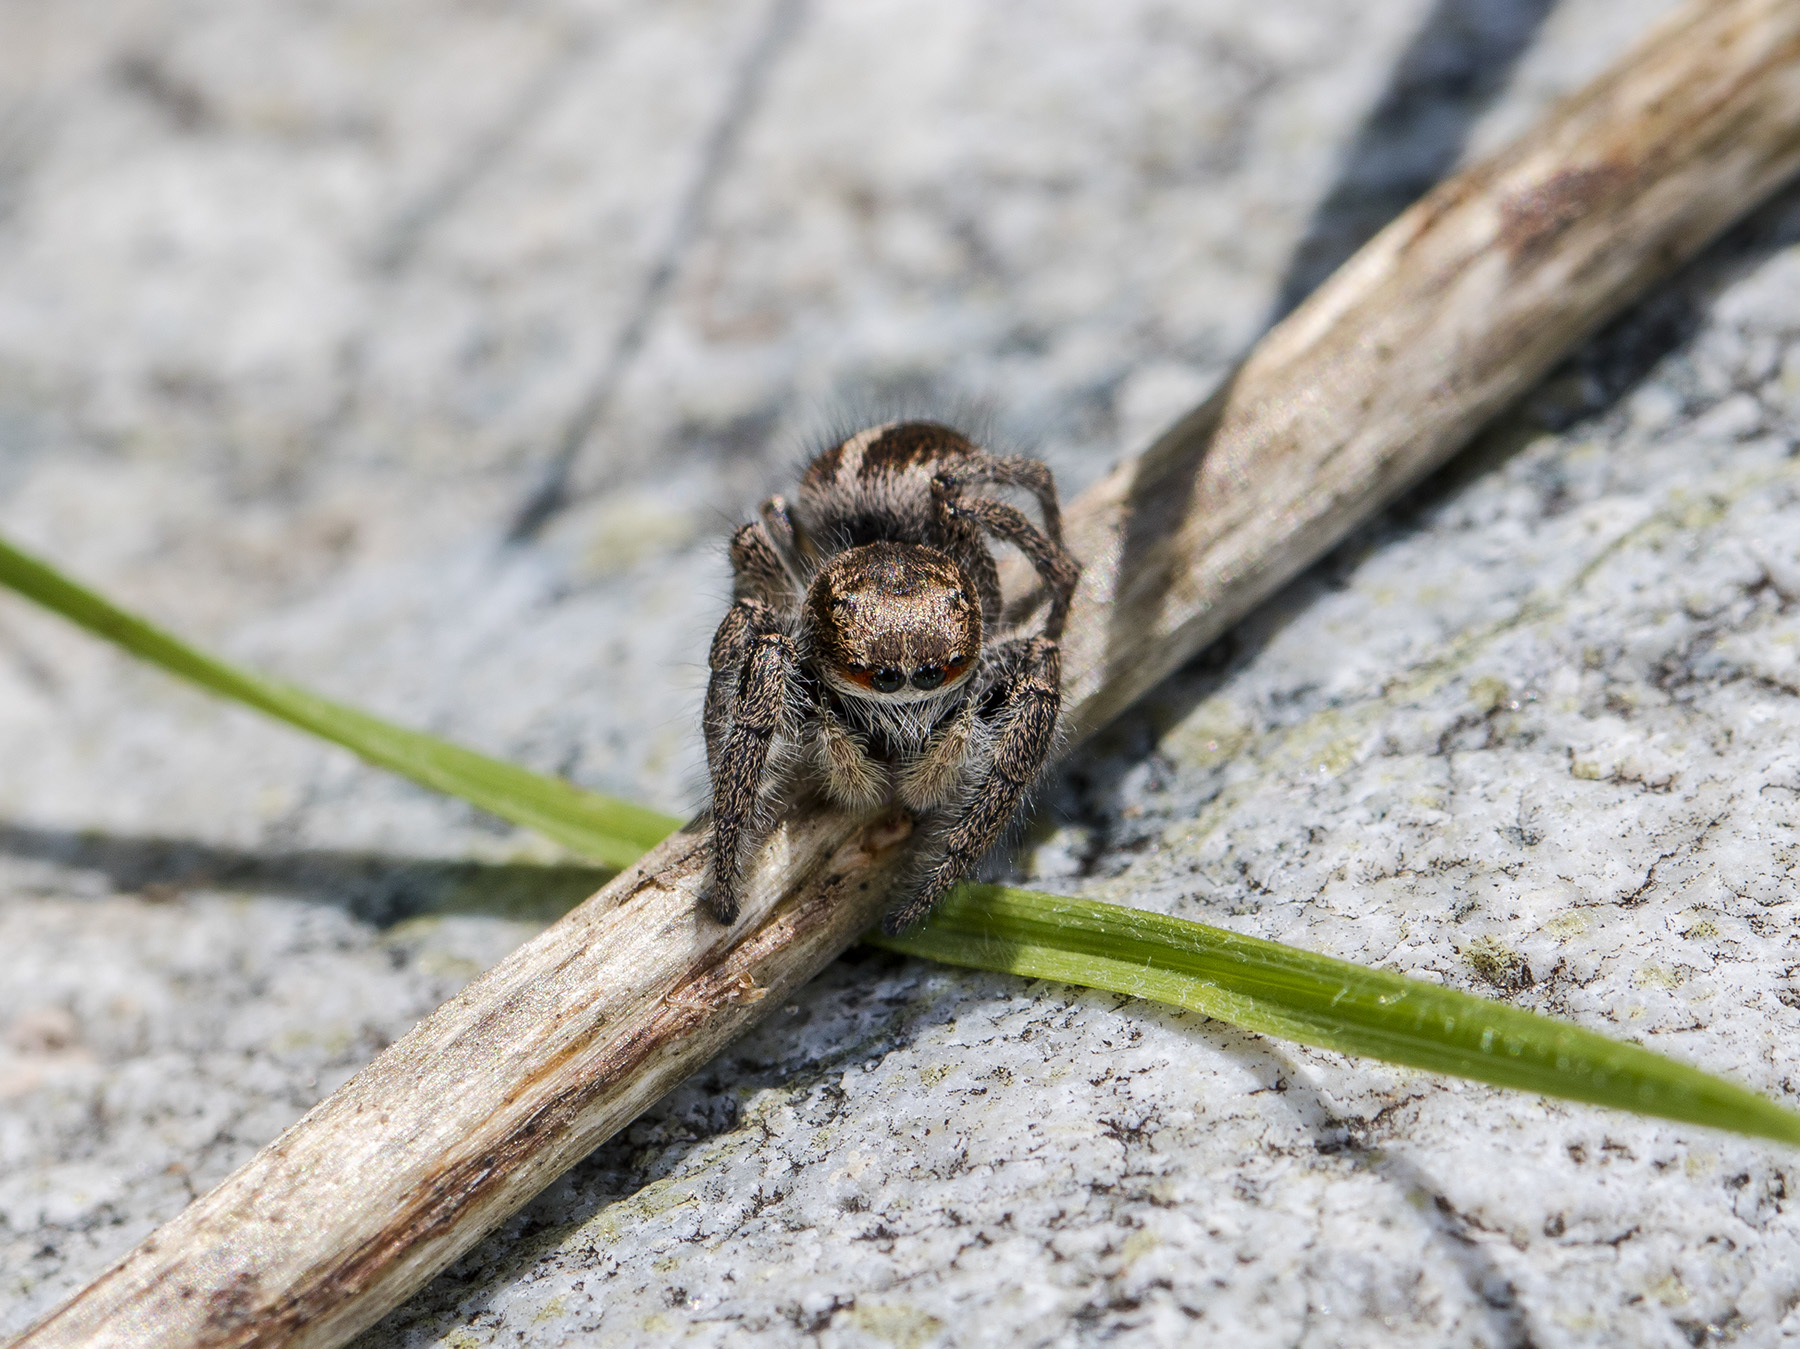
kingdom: Animalia
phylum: Arthropoda
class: Arachnida
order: Araneae
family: Salticidae
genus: Pellenes
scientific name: Pellenes seriatus
